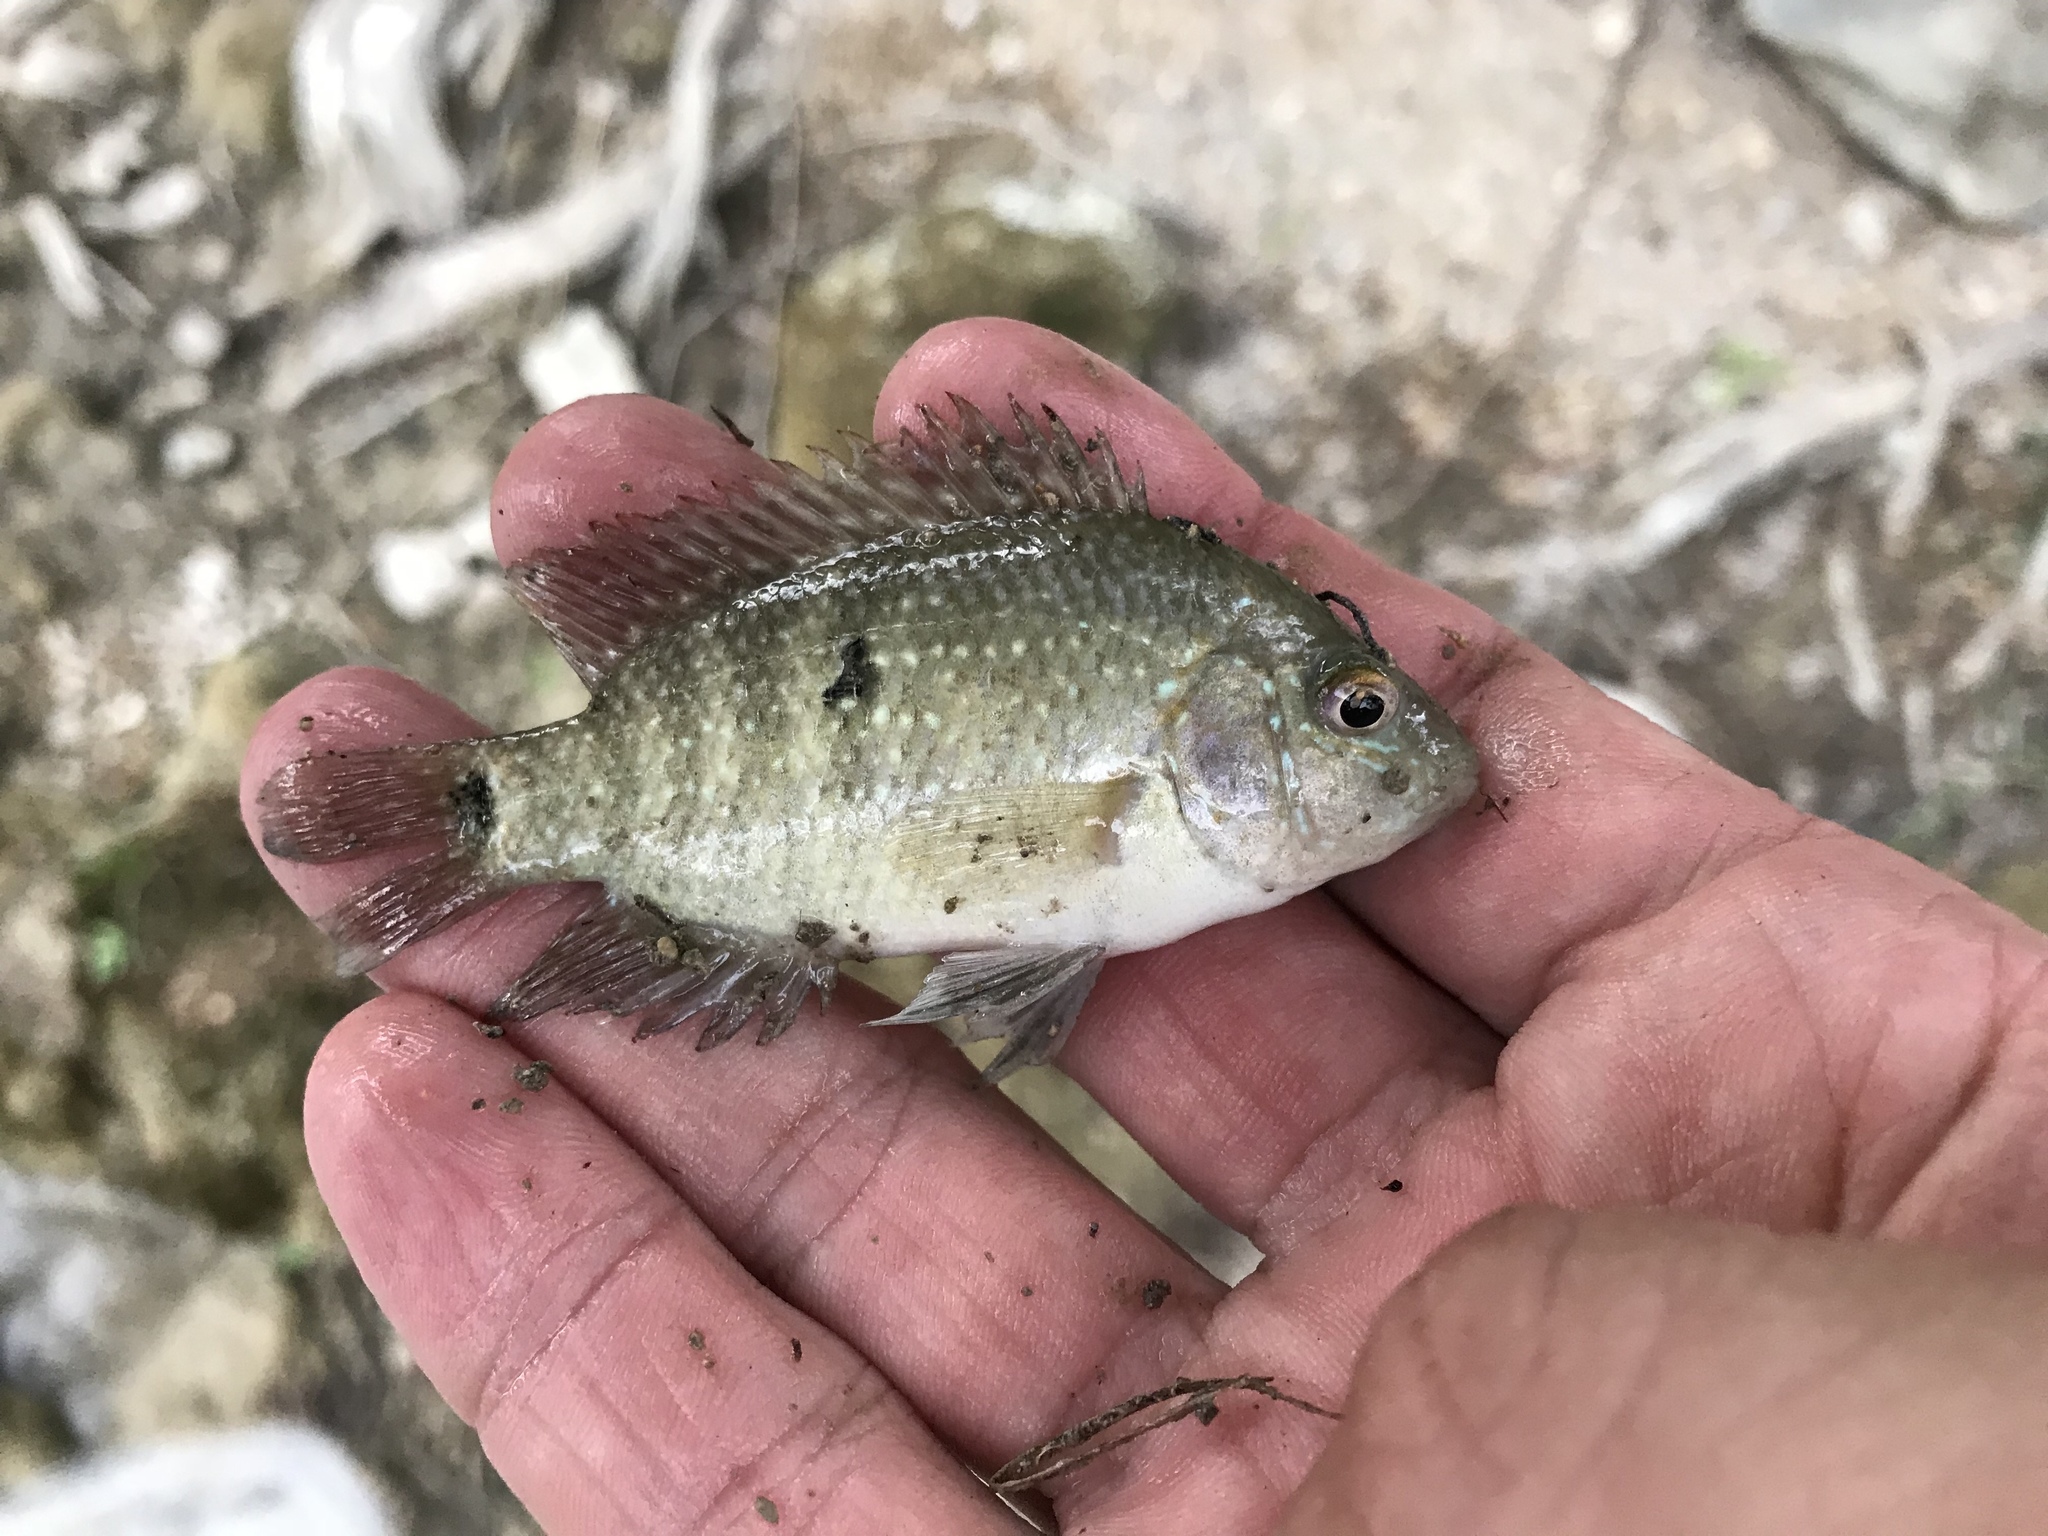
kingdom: Animalia
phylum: Chordata
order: Perciformes
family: Cichlidae
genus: Herichthys
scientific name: Herichthys cyanoguttatus
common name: Rio grande cichlid
